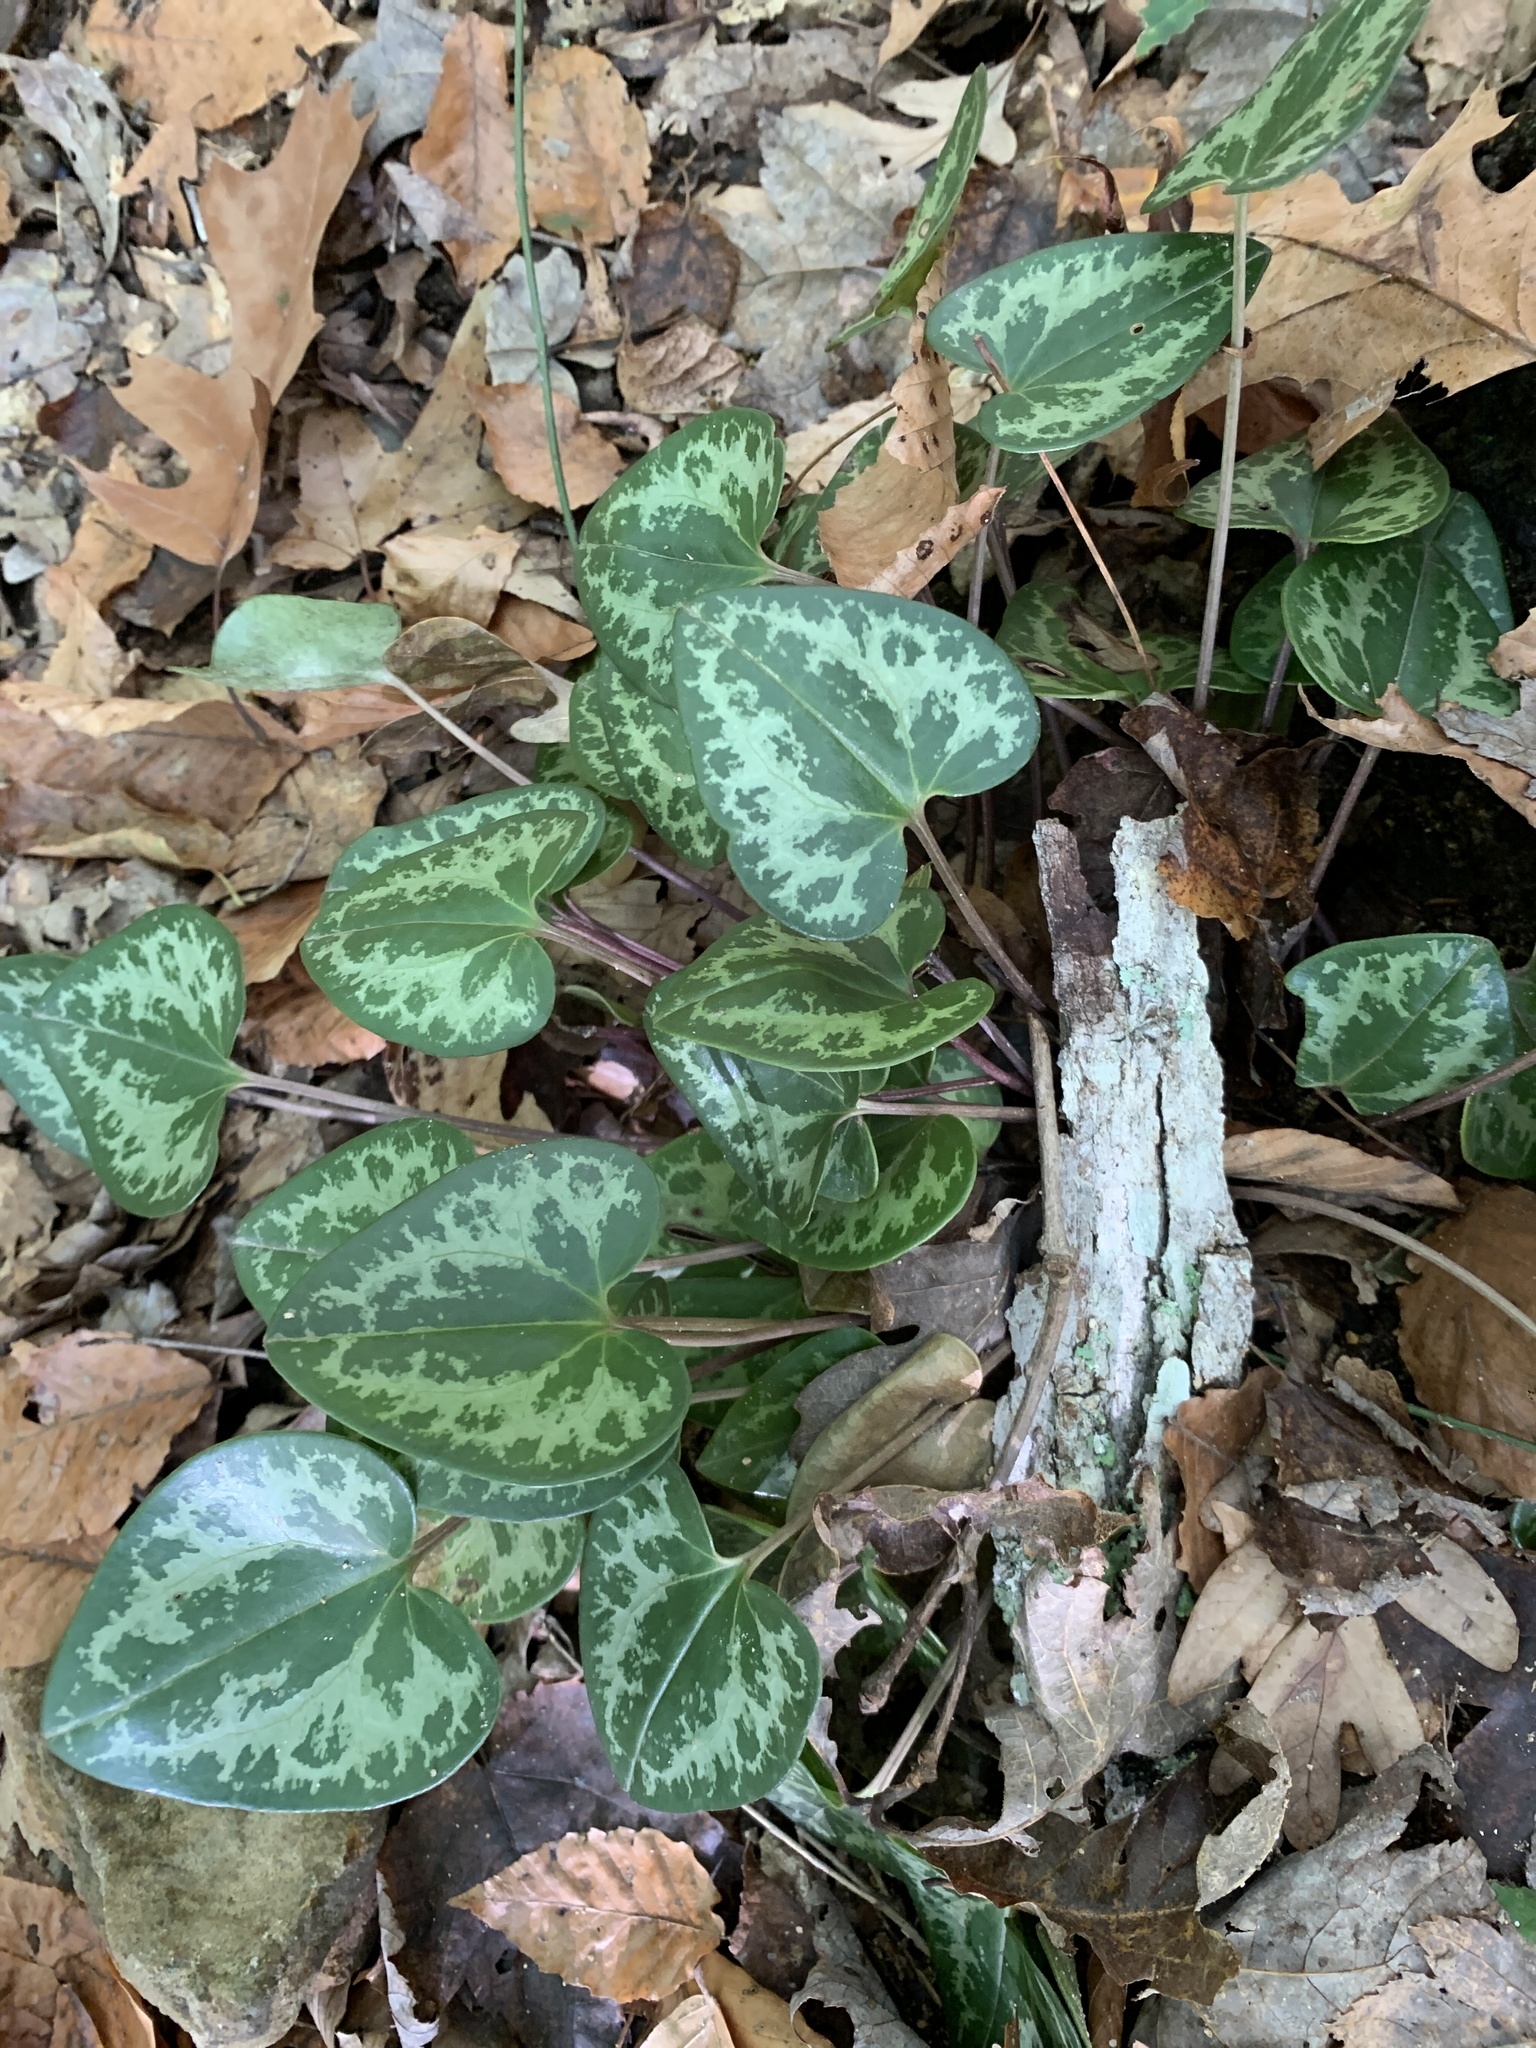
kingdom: Plantae
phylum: Tracheophyta
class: Magnoliopsida
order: Piperales
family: Aristolochiaceae
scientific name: Aristolochiaceae
